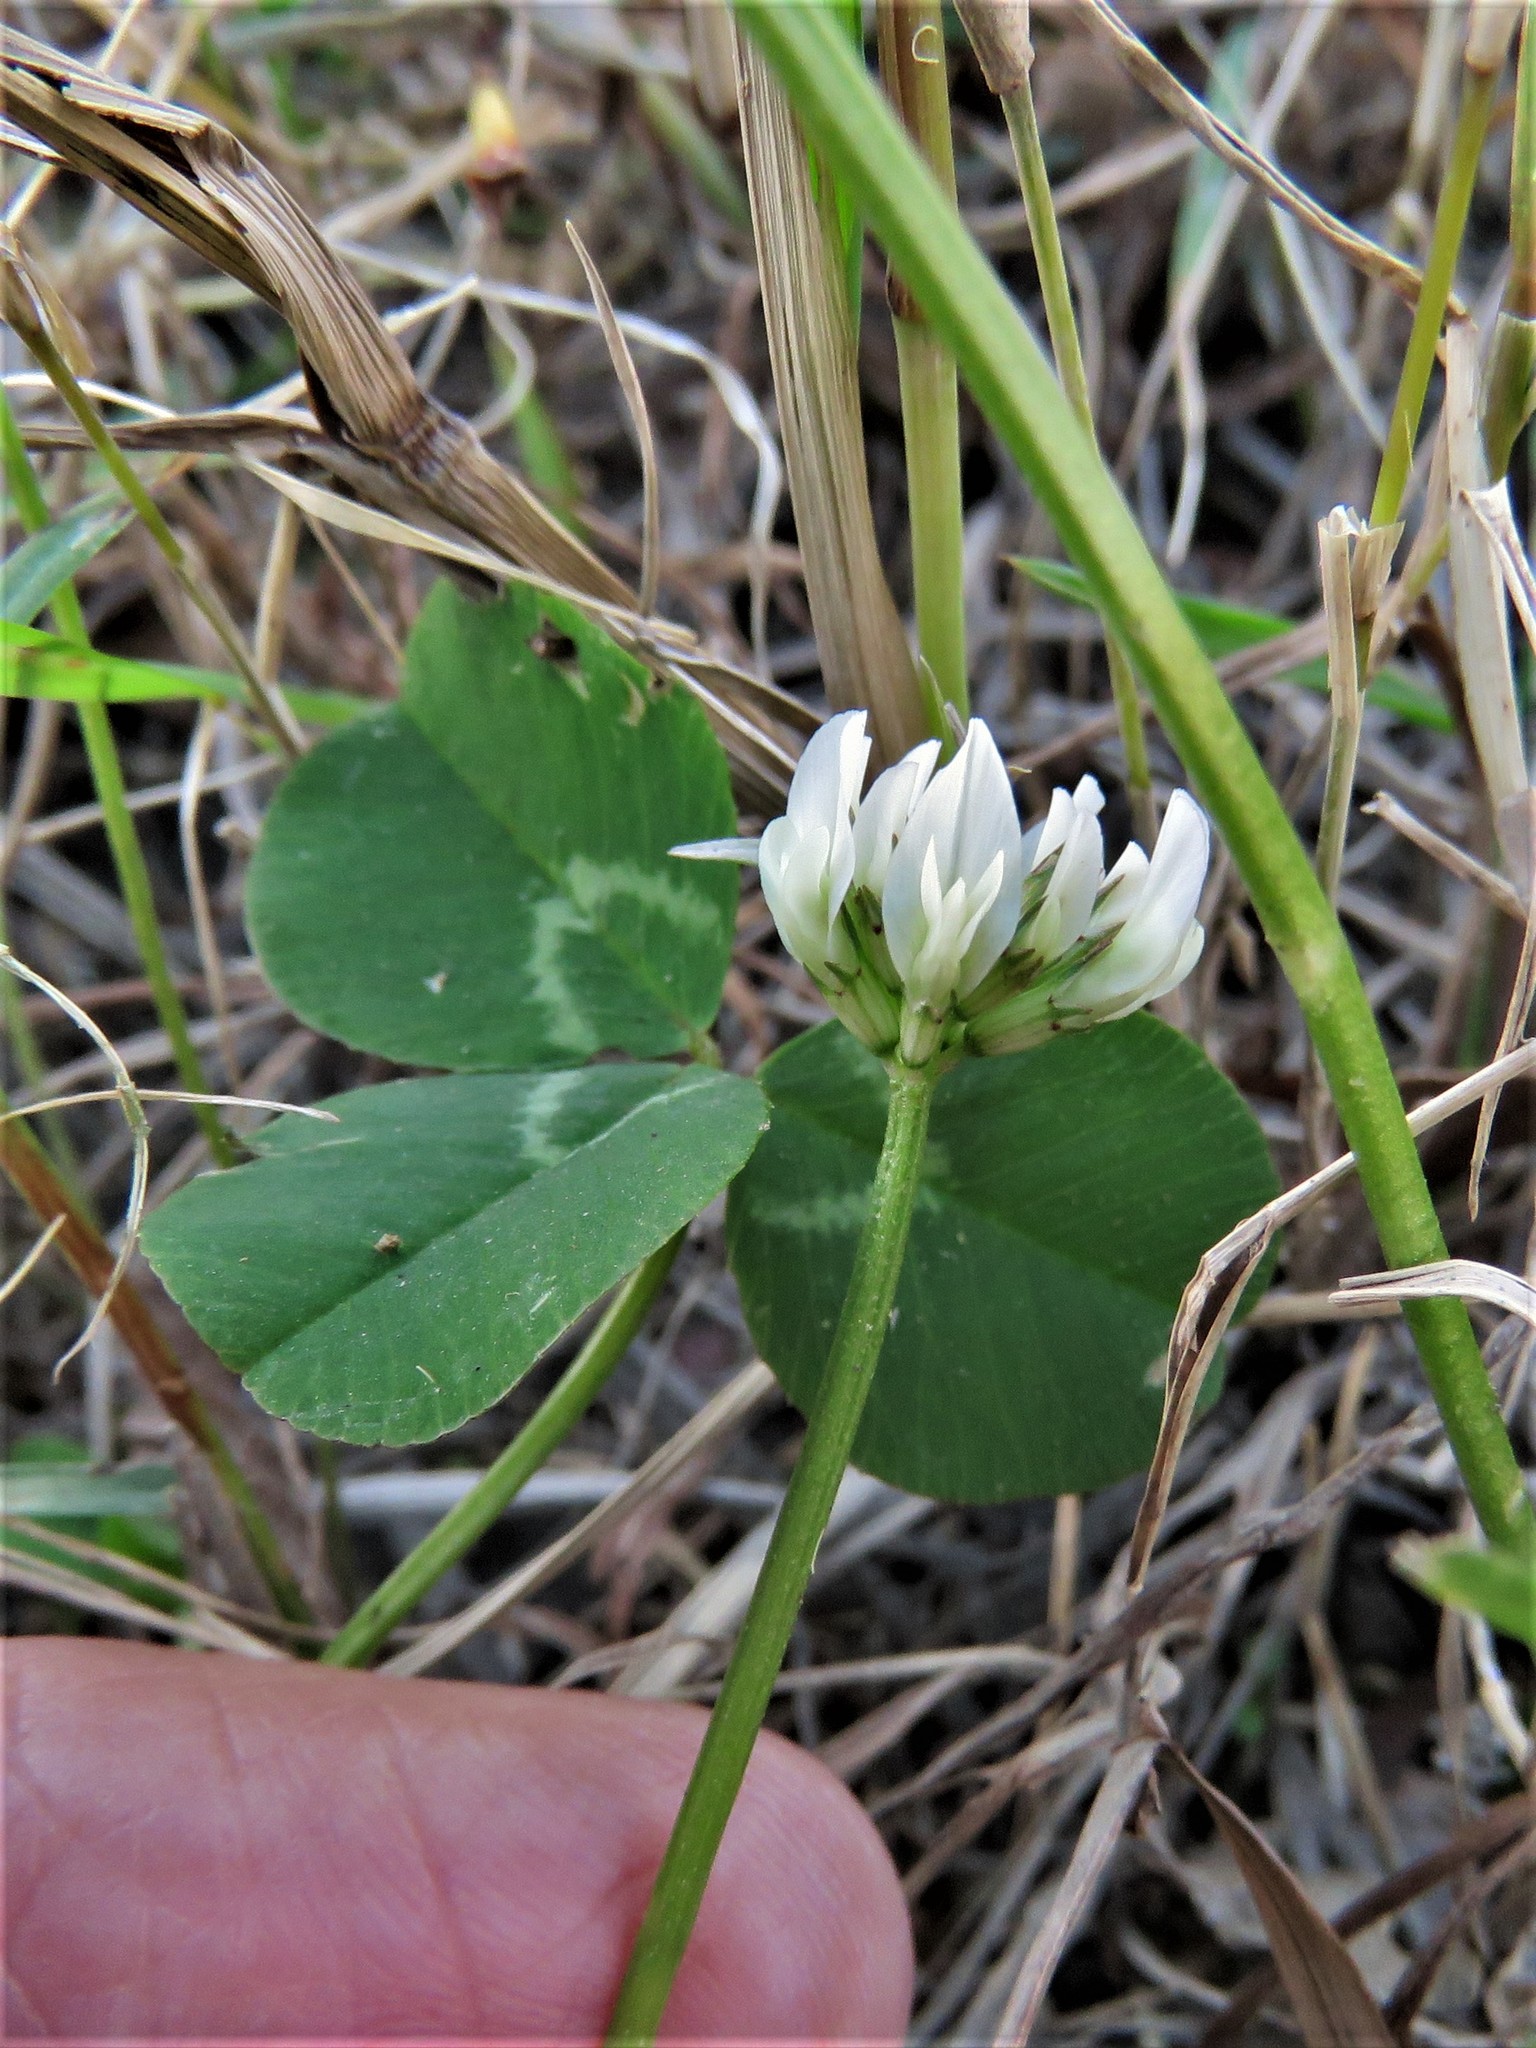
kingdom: Plantae
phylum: Tracheophyta
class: Magnoliopsida
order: Fabales
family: Fabaceae
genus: Trifolium
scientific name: Trifolium repens
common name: White clover
